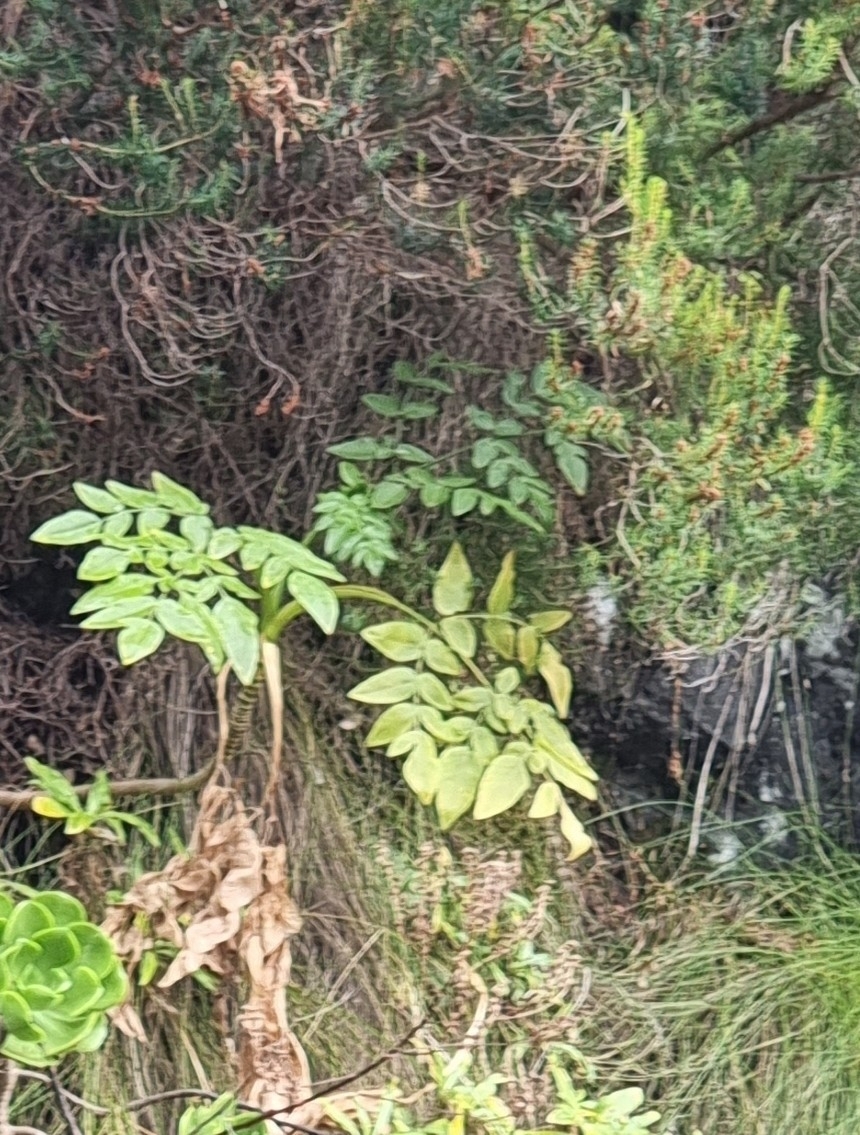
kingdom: Plantae
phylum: Tracheophyta
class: Magnoliopsida
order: Apiales
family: Apiaceae
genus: Daucus
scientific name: Daucus decipiens
